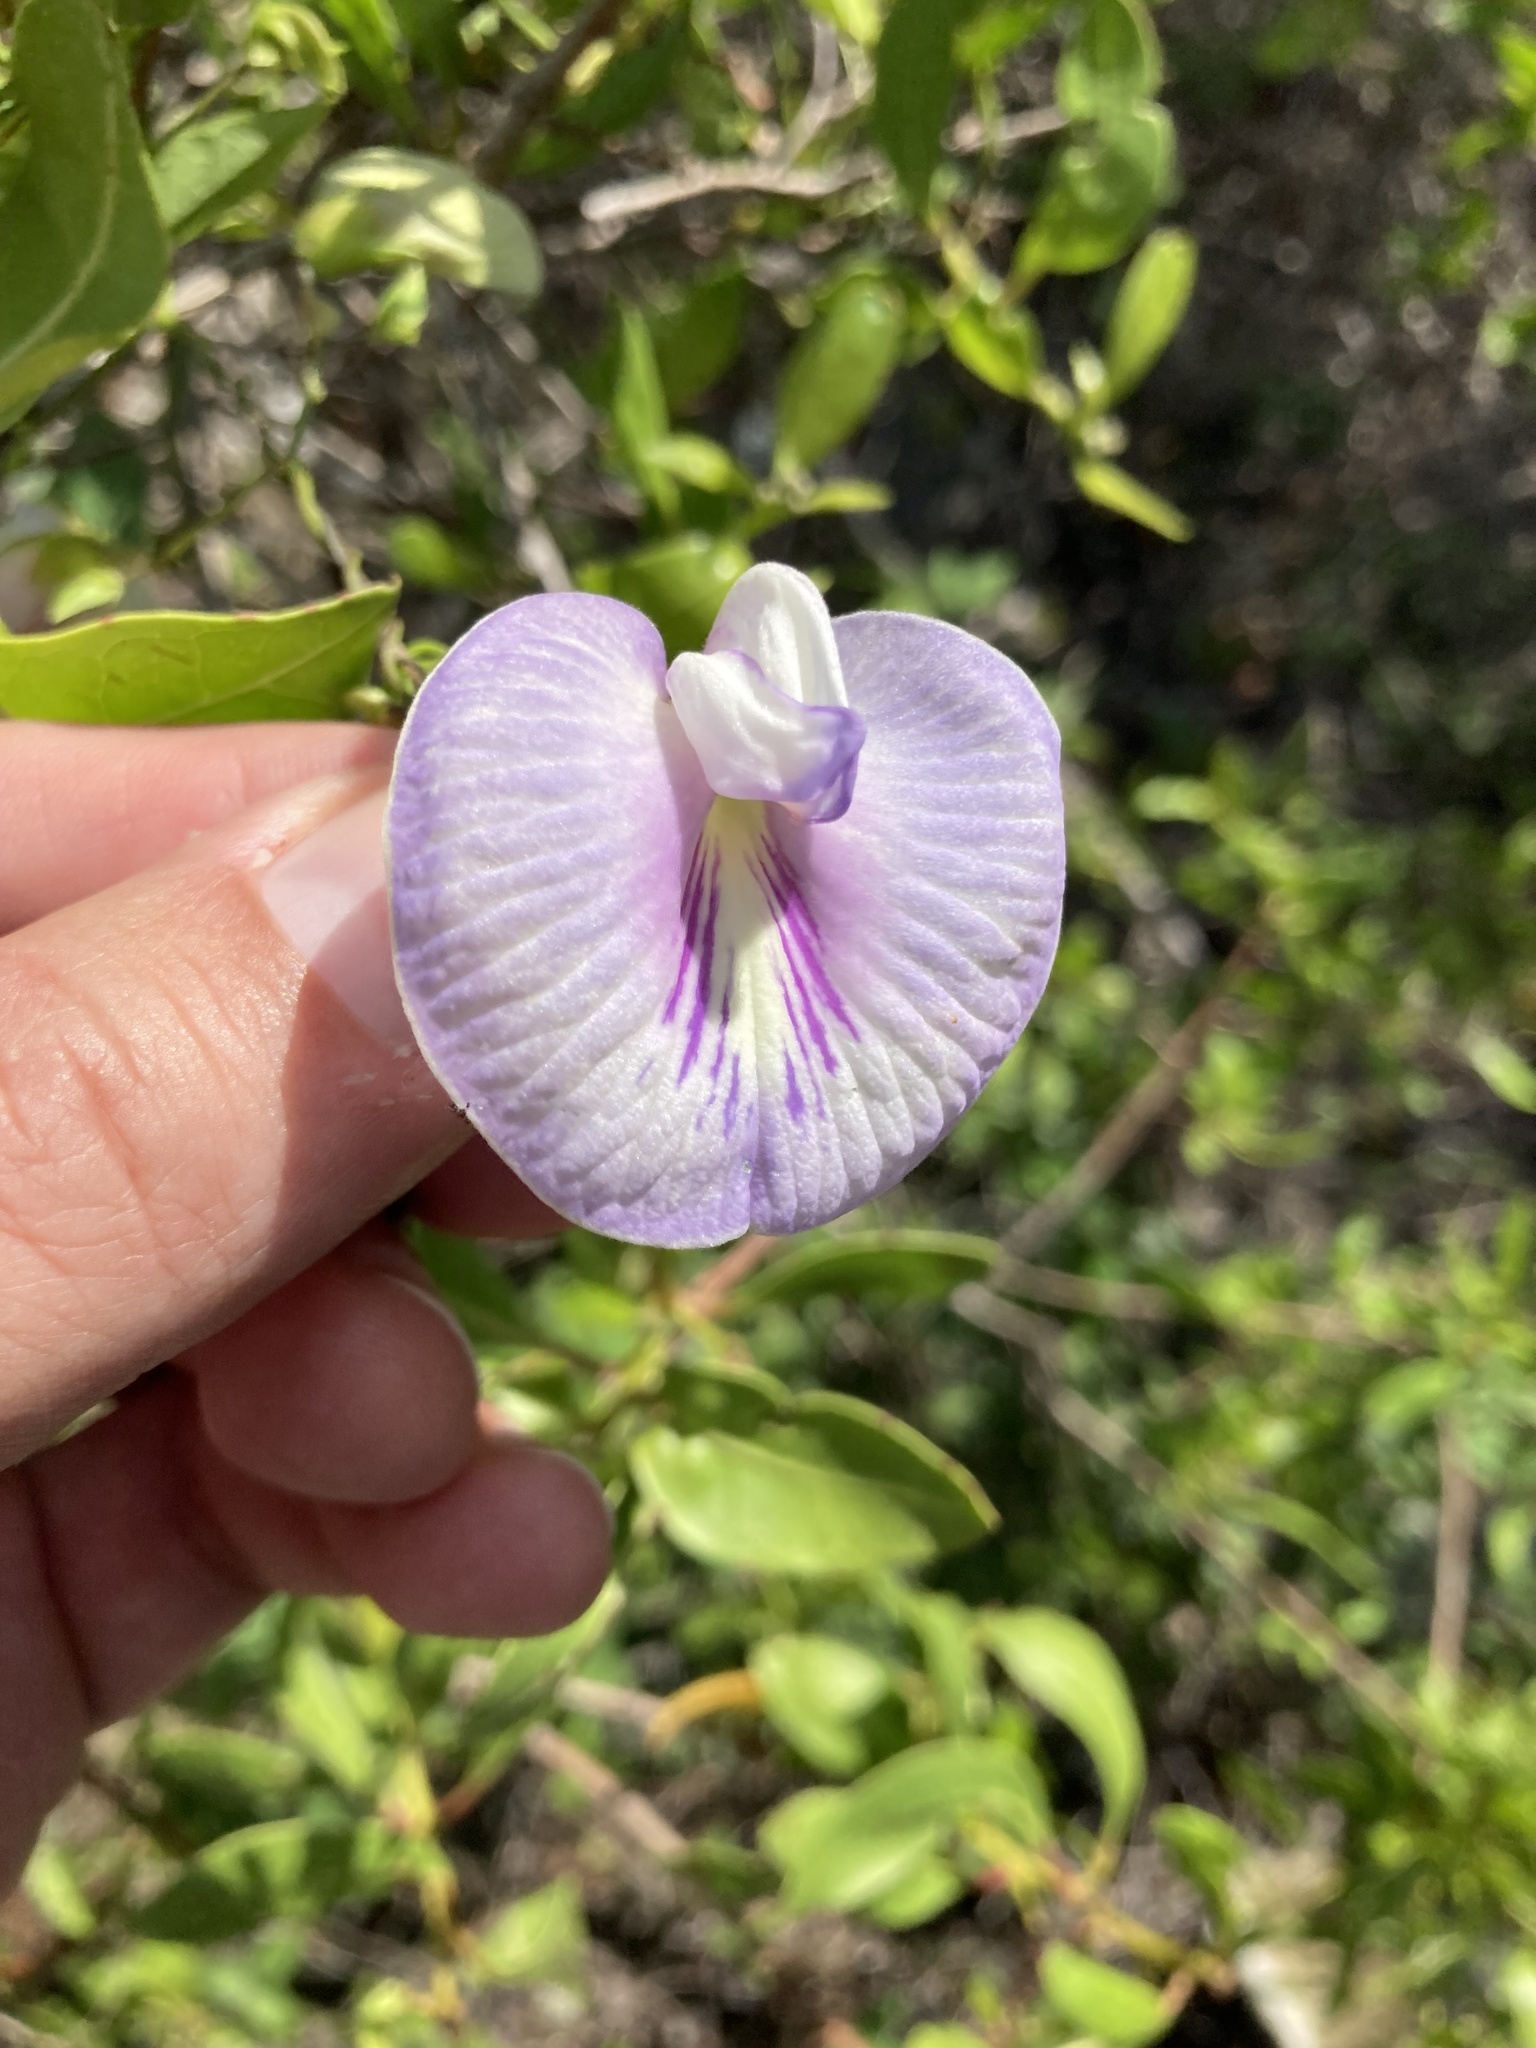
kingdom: Plantae
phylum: Tracheophyta
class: Magnoliopsida
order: Fabales
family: Fabaceae
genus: Centrosema
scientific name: Centrosema virginianum
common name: Butterfly-pea
